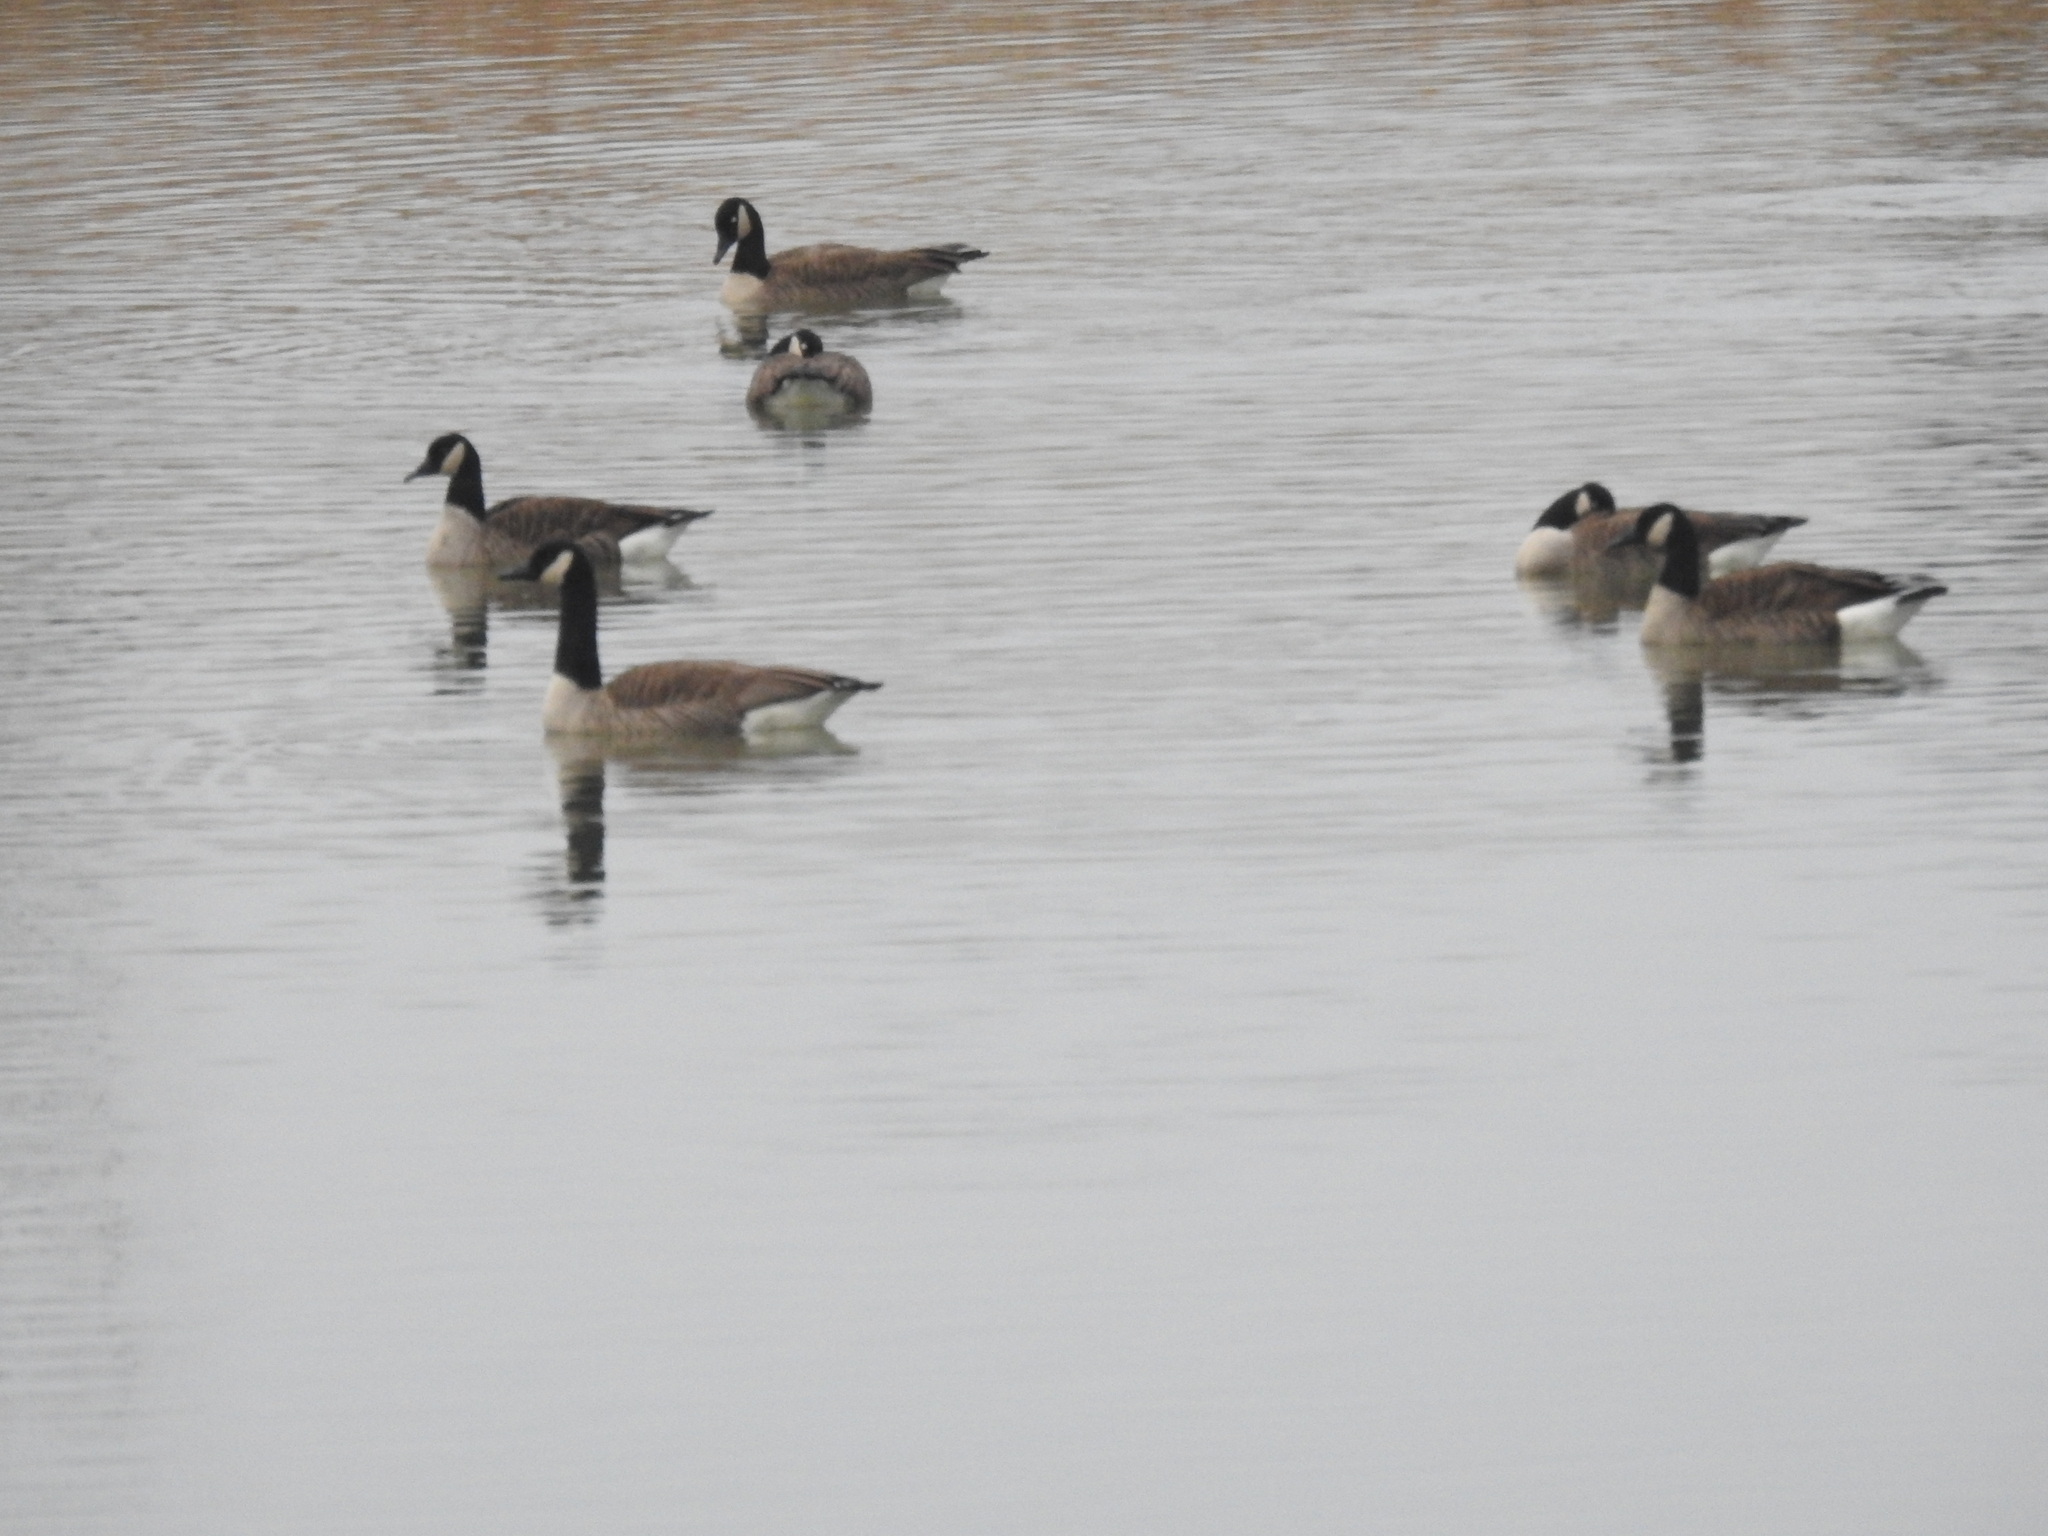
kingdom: Animalia
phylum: Chordata
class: Aves
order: Anseriformes
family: Anatidae
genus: Branta
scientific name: Branta canadensis
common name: Canada goose
